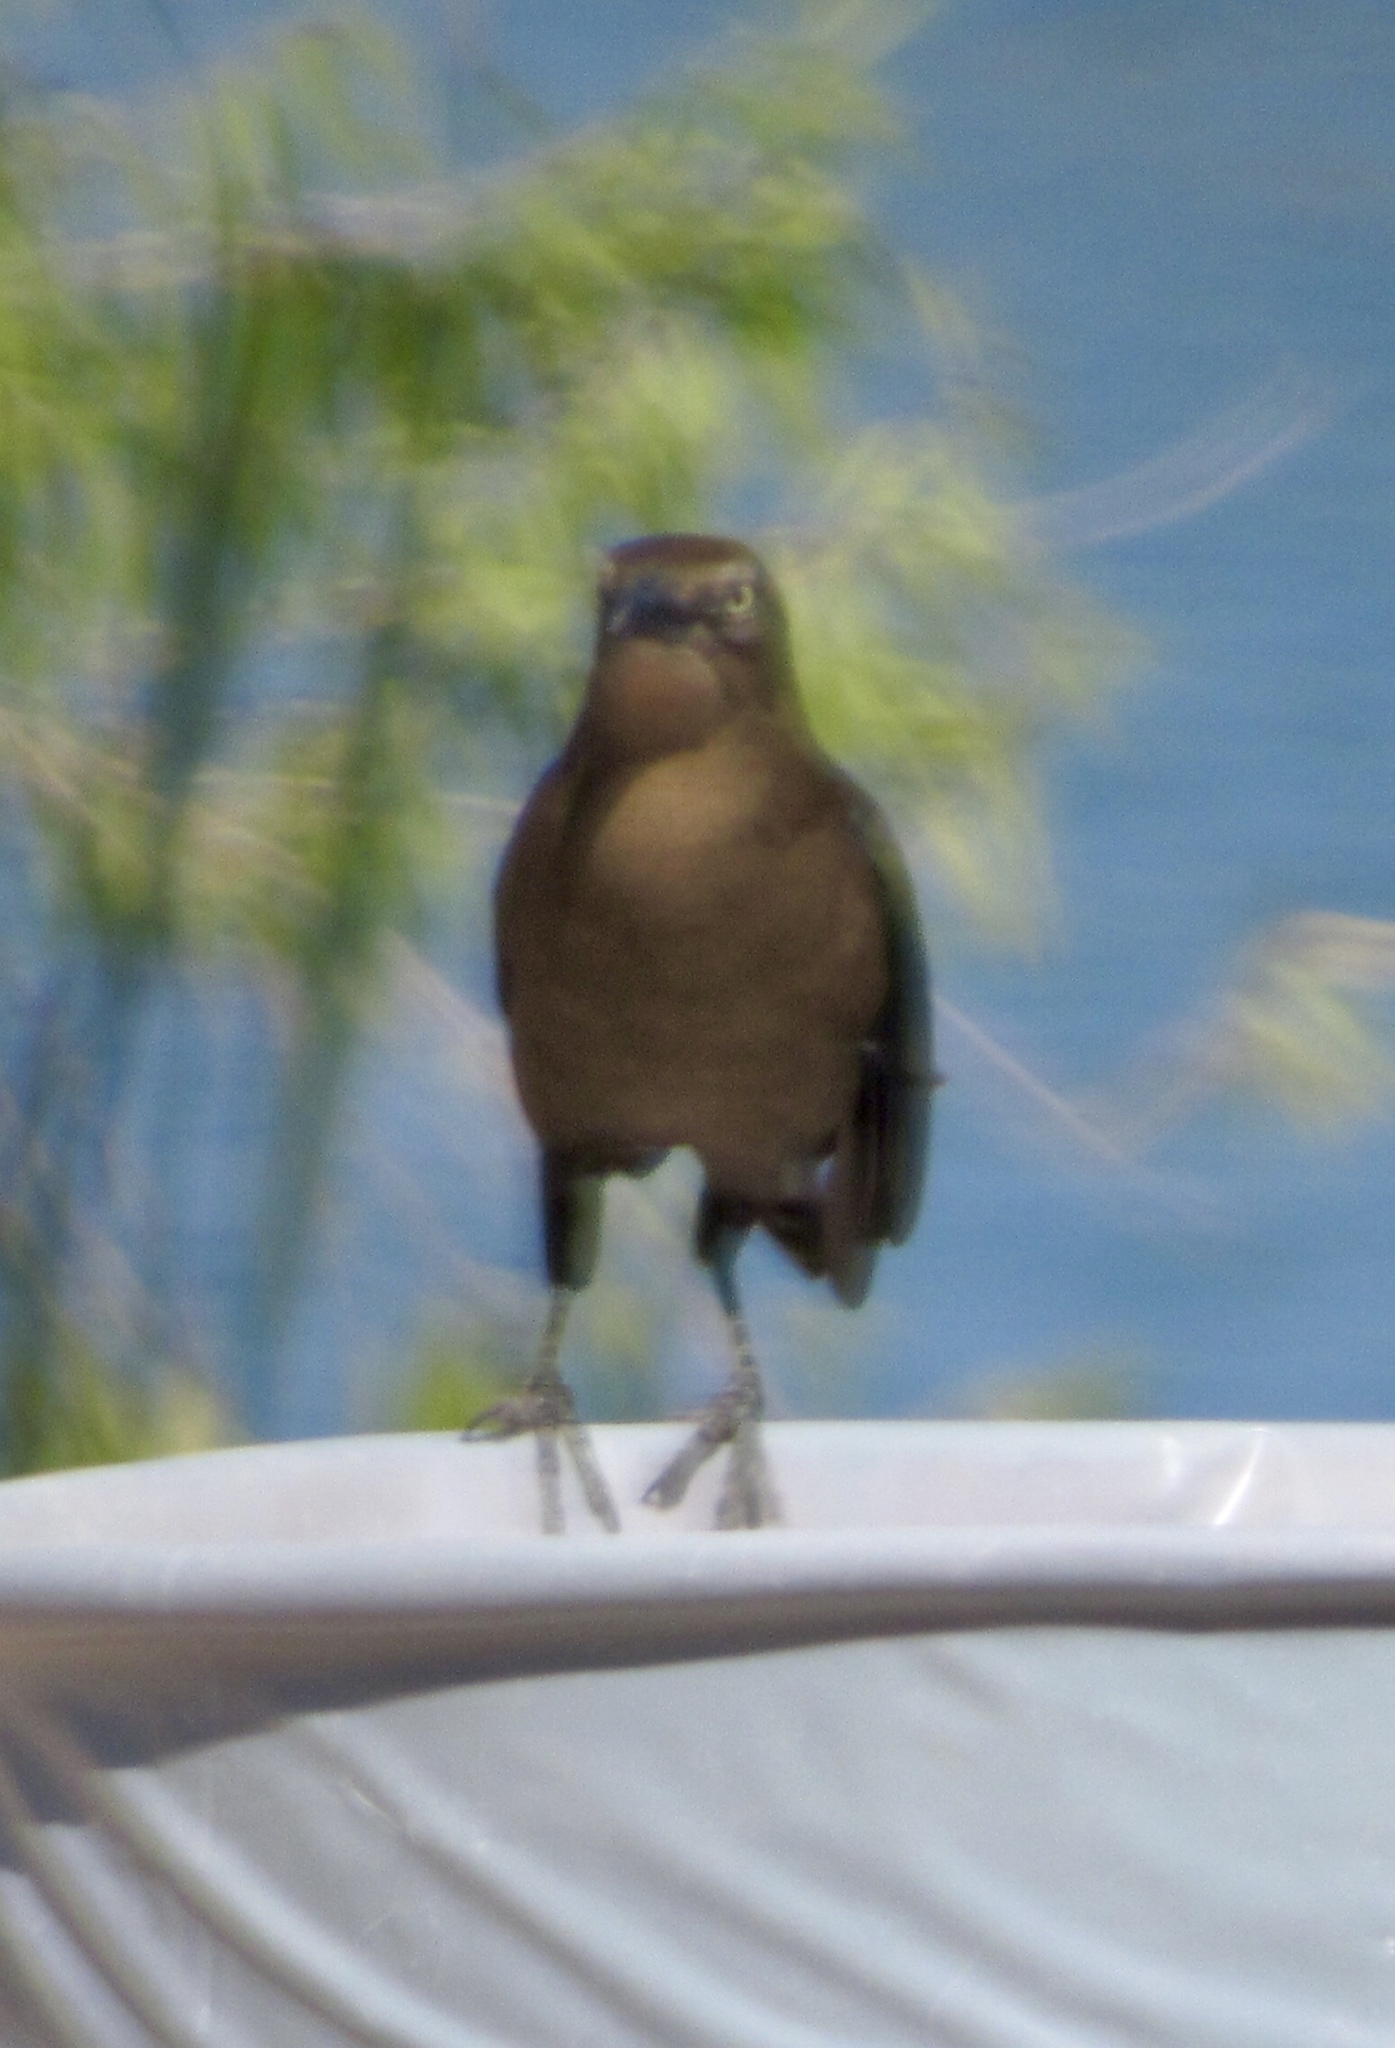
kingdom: Animalia
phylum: Chordata
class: Aves
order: Passeriformes
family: Icteridae
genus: Quiscalus
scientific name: Quiscalus mexicanus
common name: Great-tailed grackle
